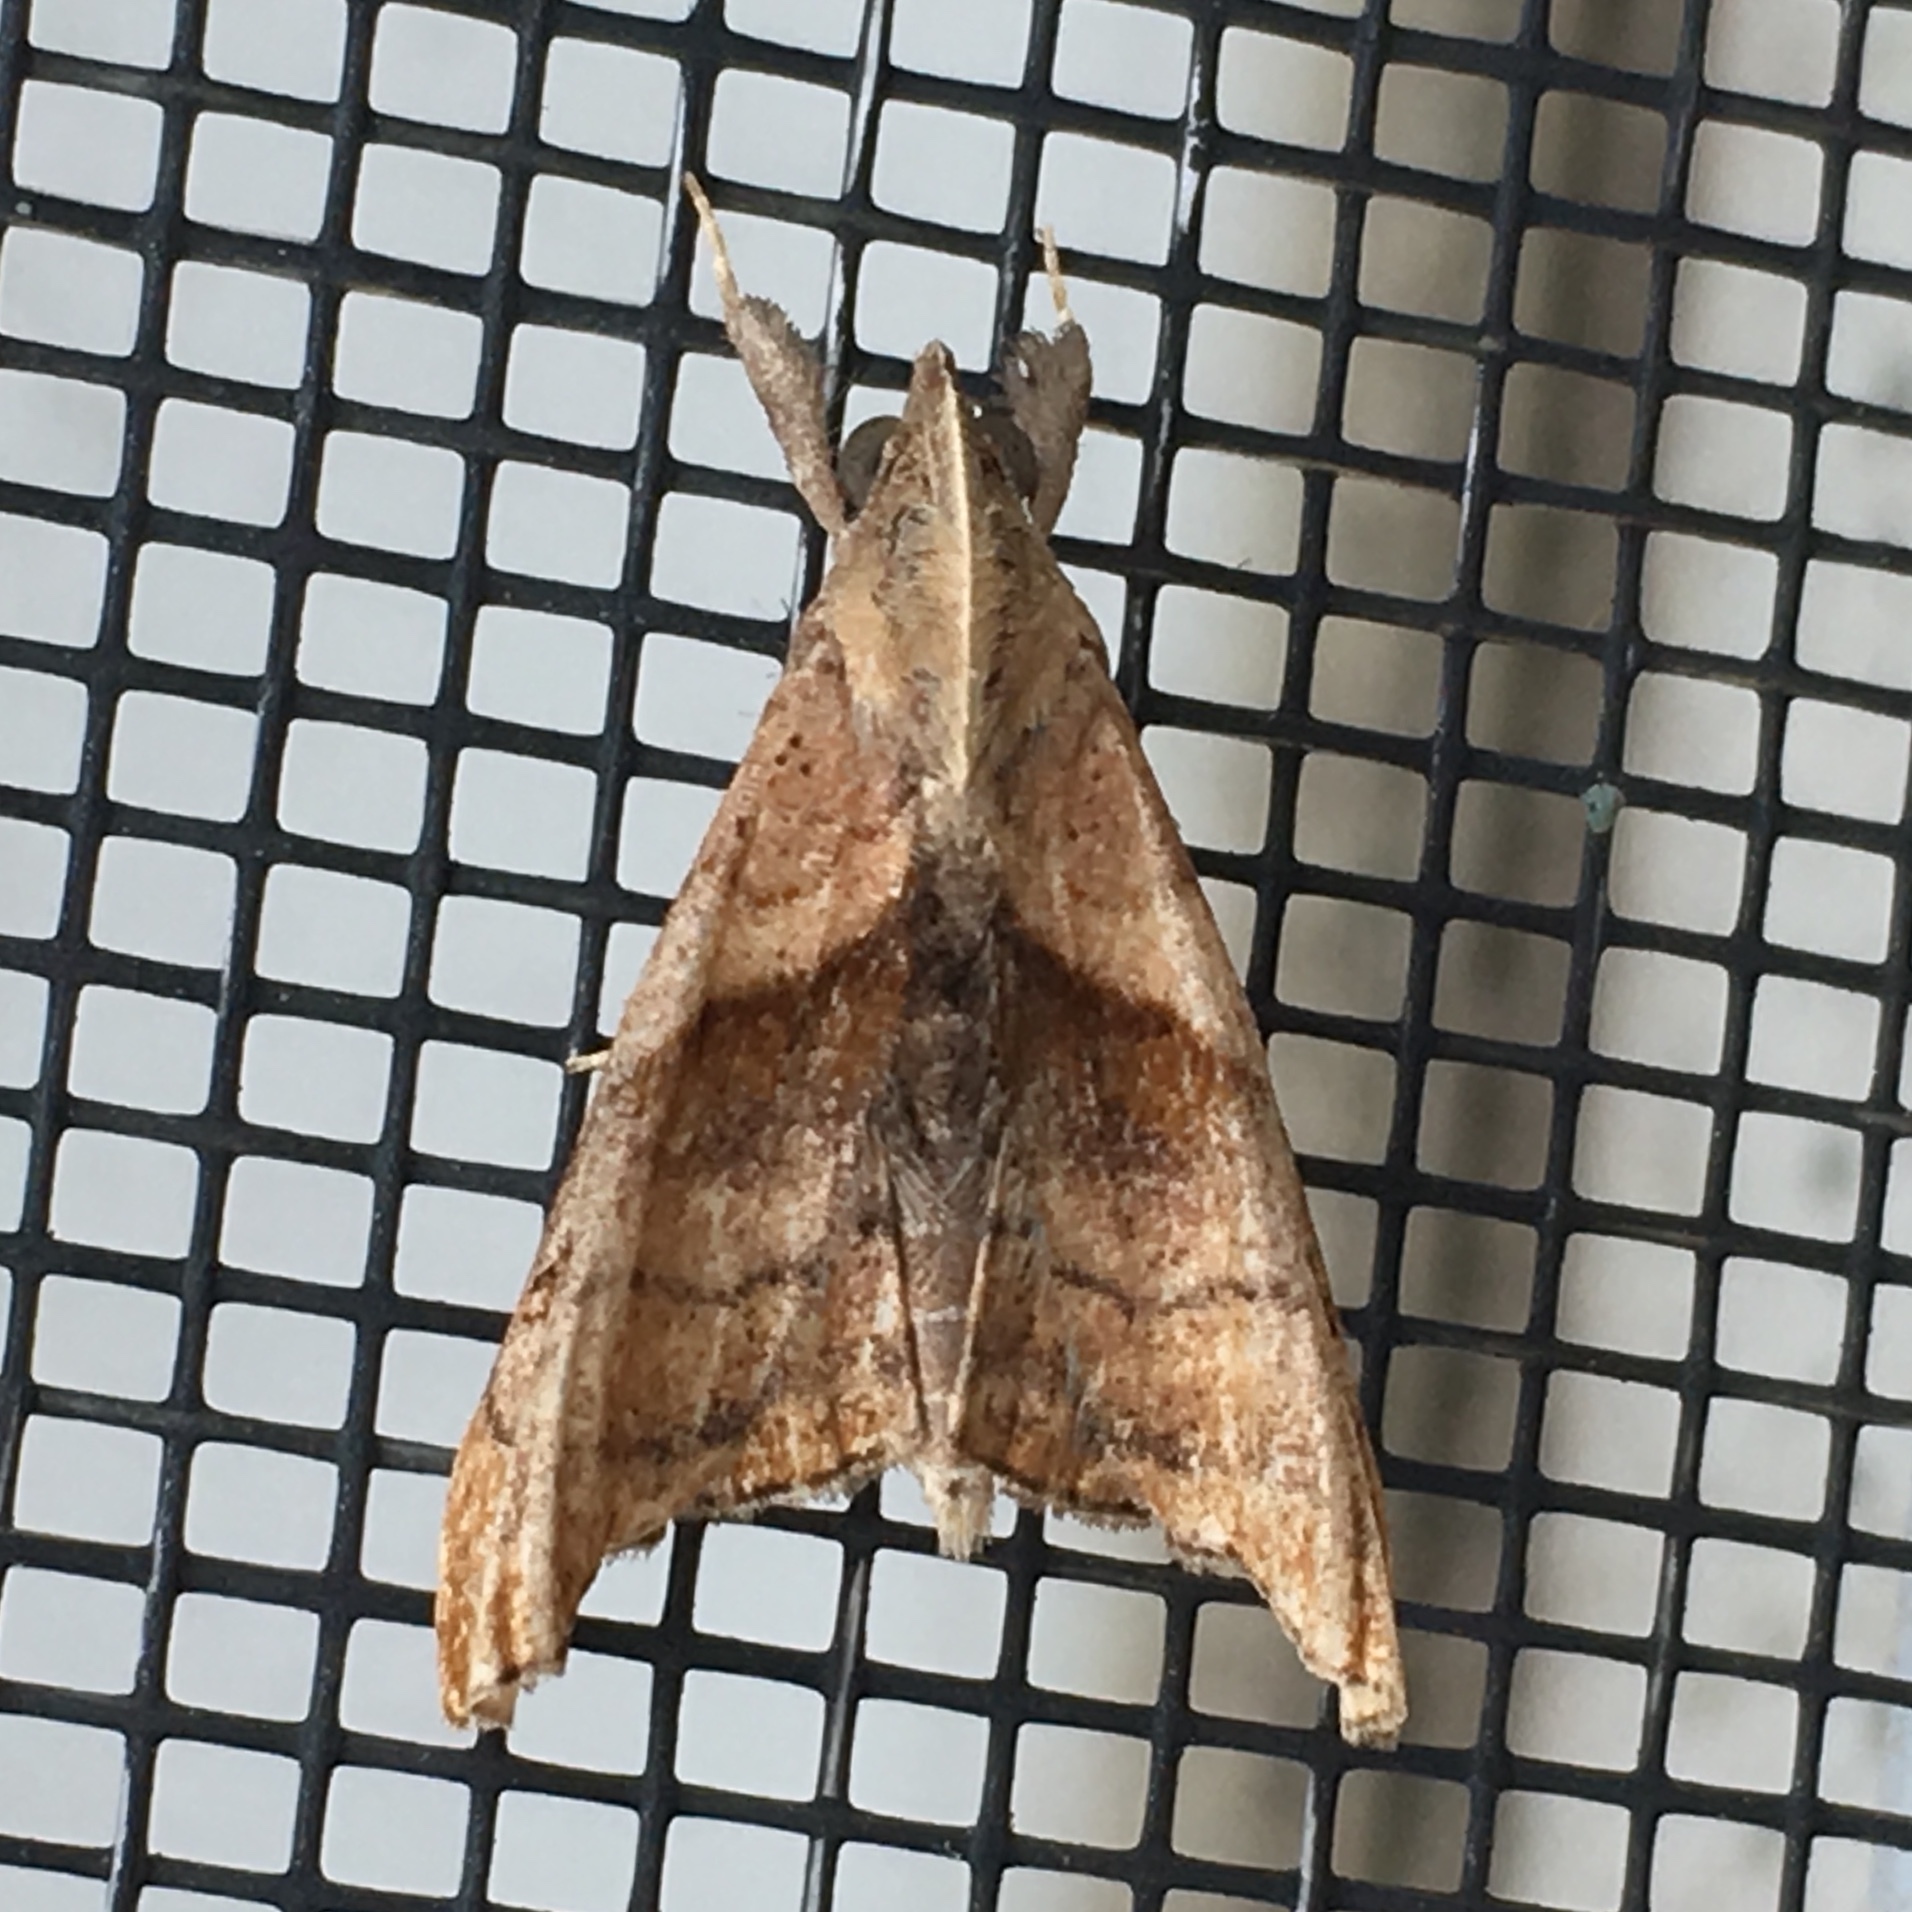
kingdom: Animalia
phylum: Arthropoda
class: Insecta
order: Lepidoptera
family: Erebidae
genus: Palthis
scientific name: Palthis angulalis
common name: Dark-spotted palthis moth
